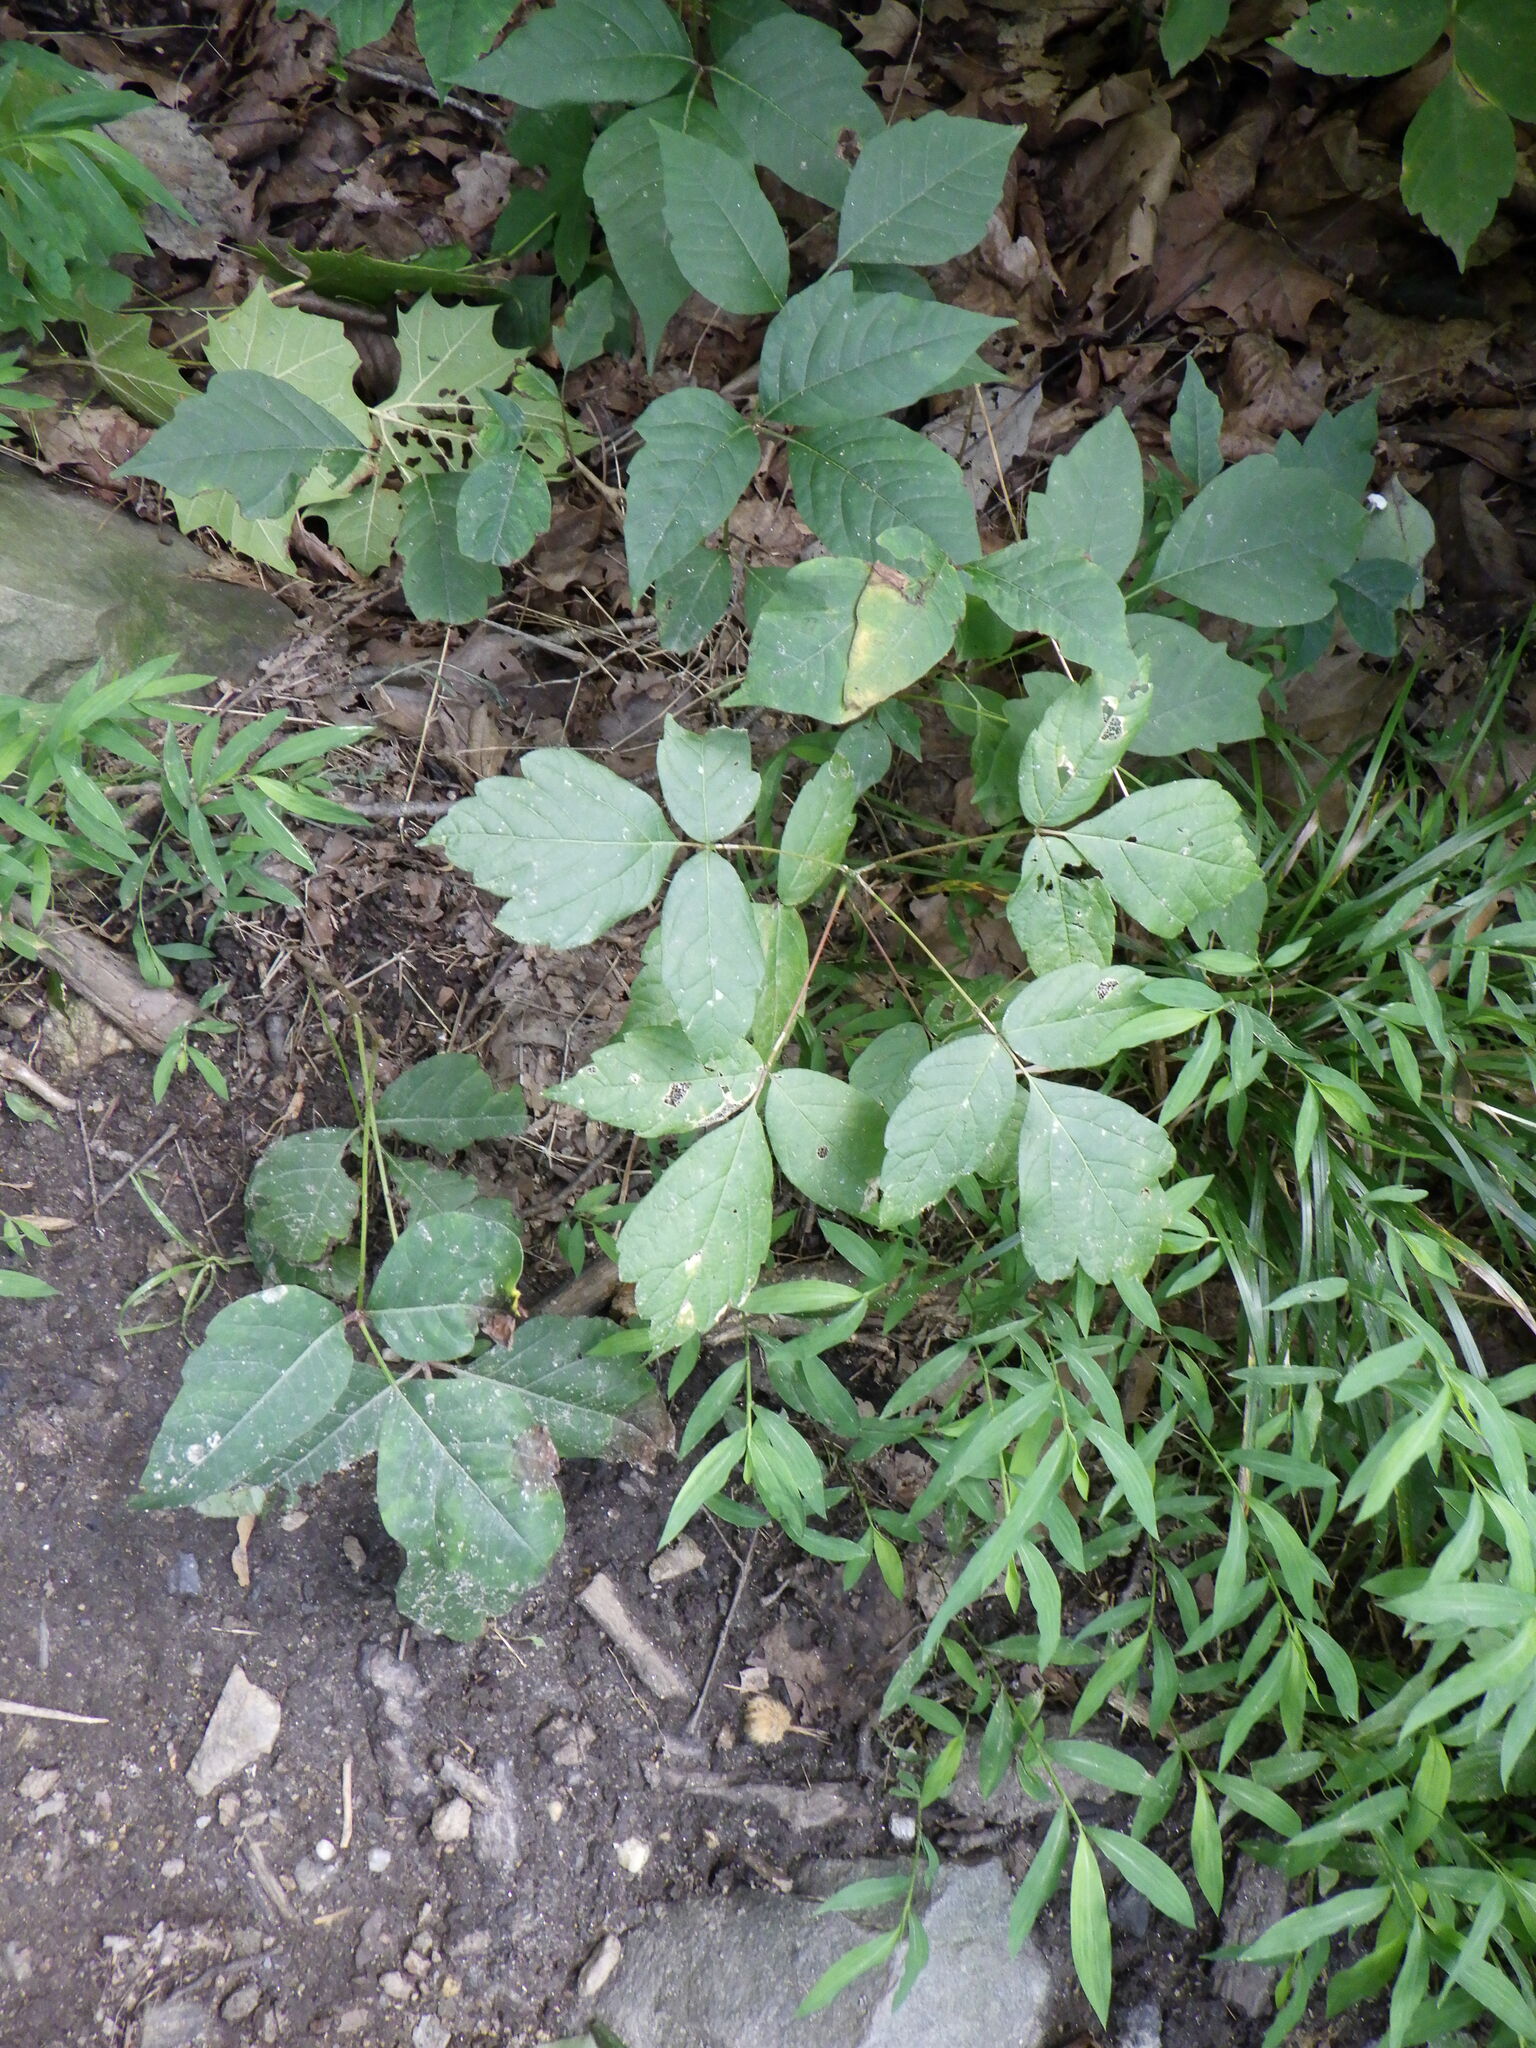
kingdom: Plantae
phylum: Tracheophyta
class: Magnoliopsida
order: Sapindales
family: Anacardiaceae
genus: Toxicodendron
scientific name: Toxicodendron radicans
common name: Poison ivy
